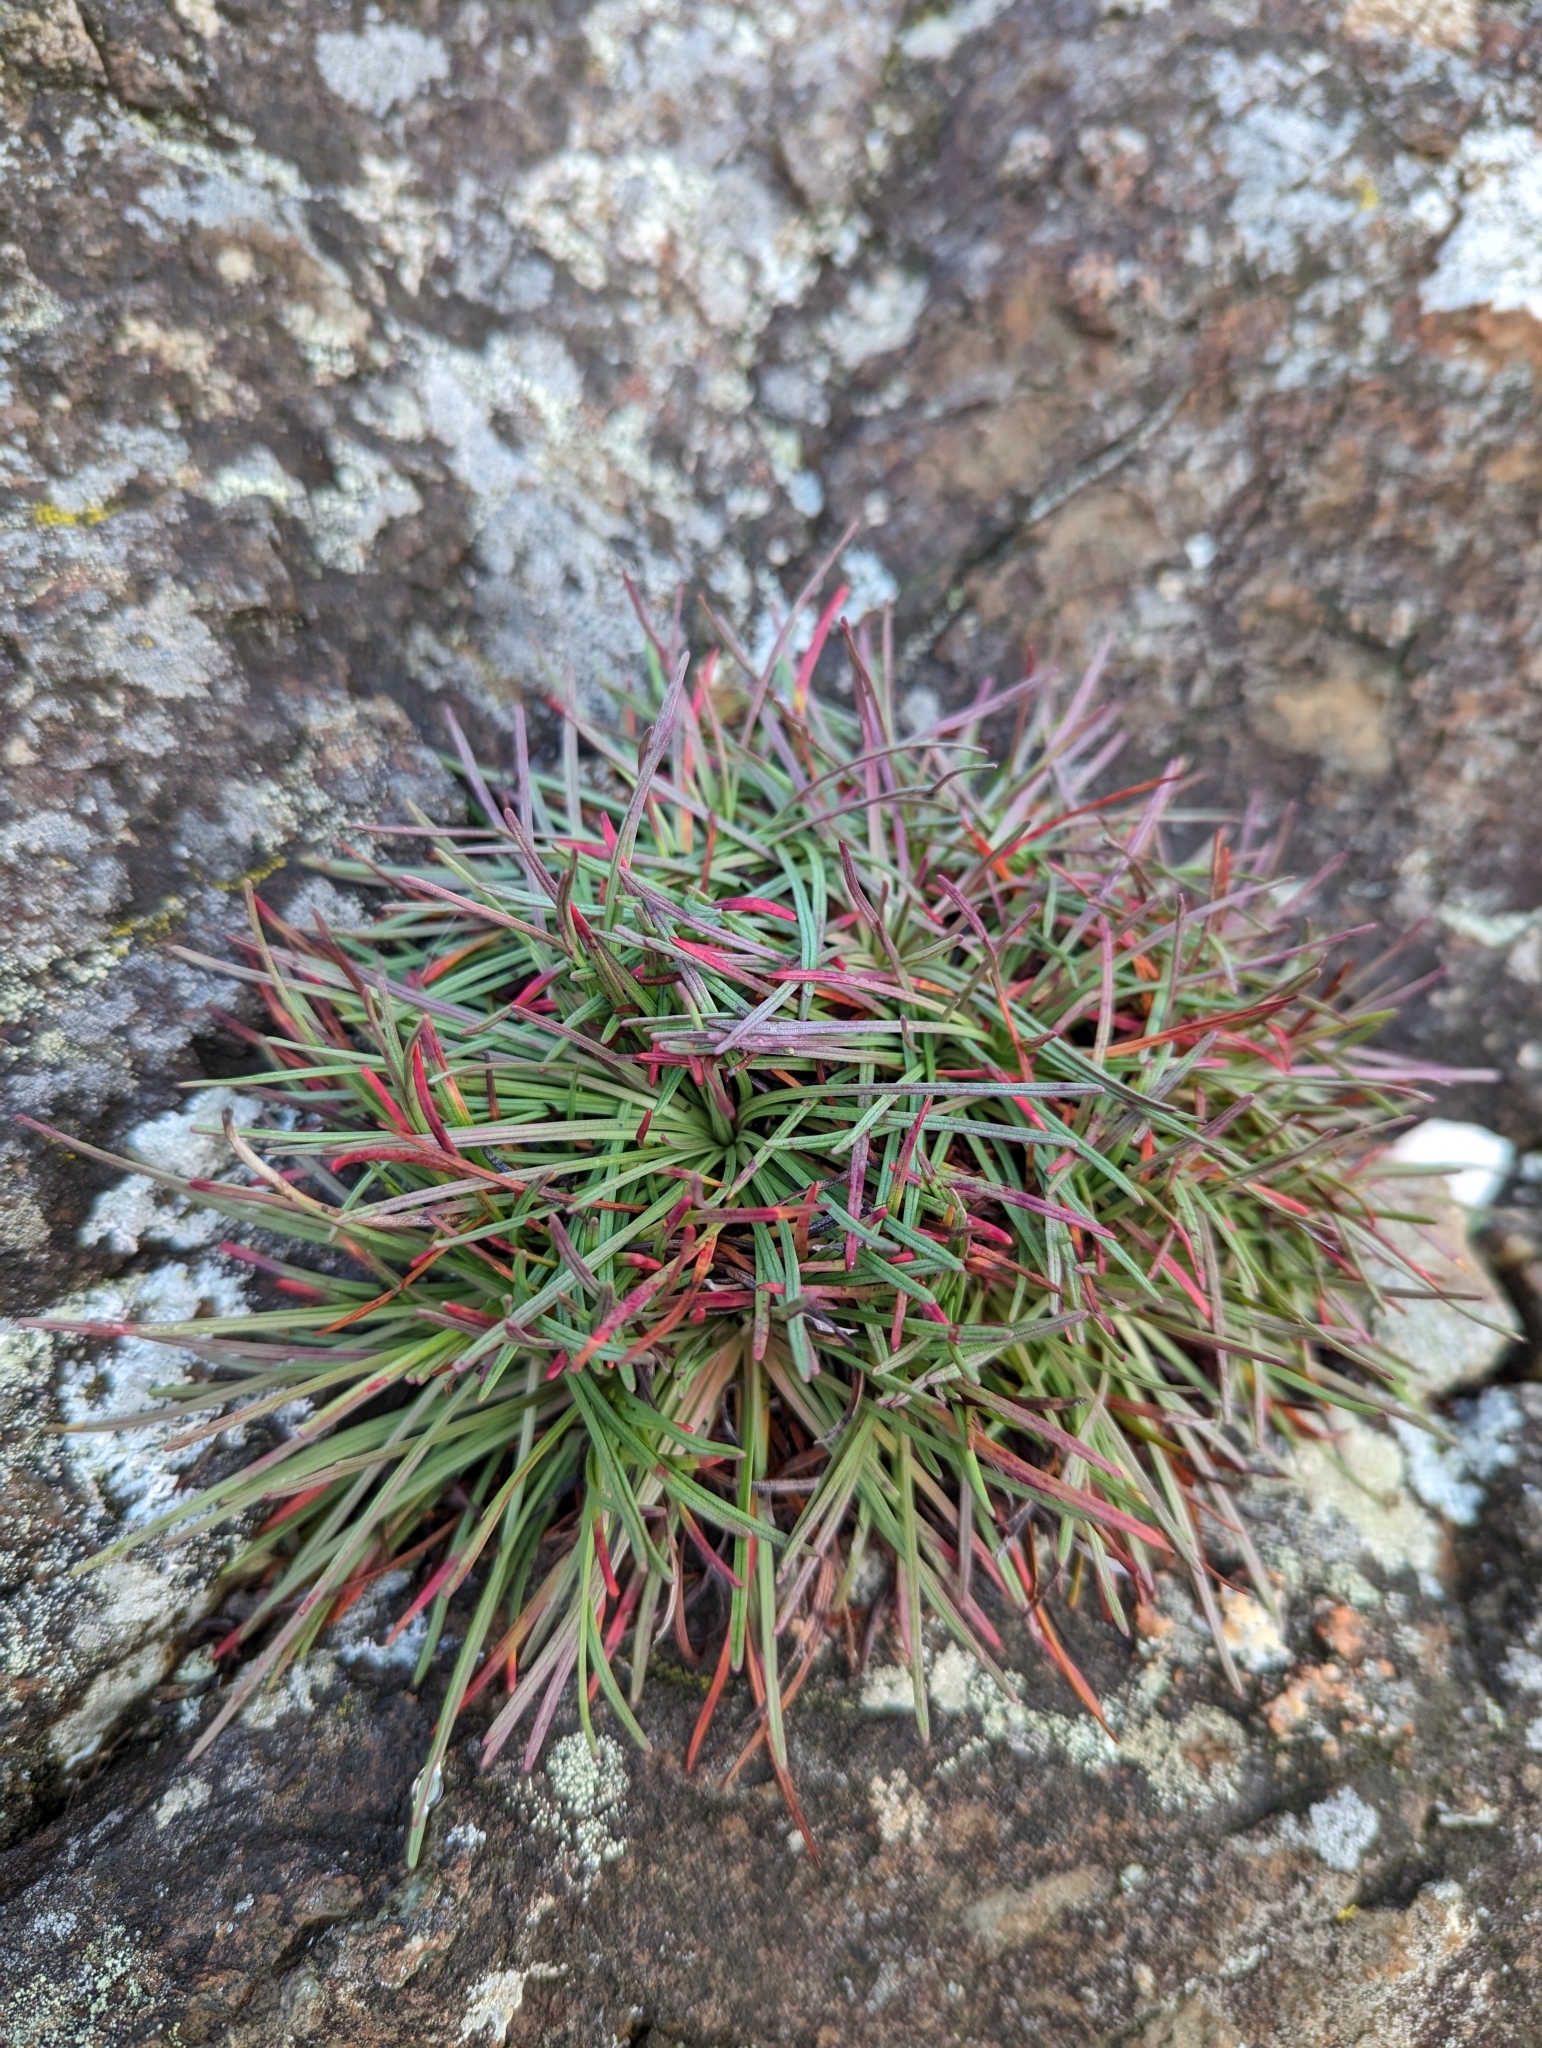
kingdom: Plantae
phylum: Tracheophyta
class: Magnoliopsida
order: Caryophyllales
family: Plumbaginaceae
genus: Armeria
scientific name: Armeria maritima
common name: Thrift
